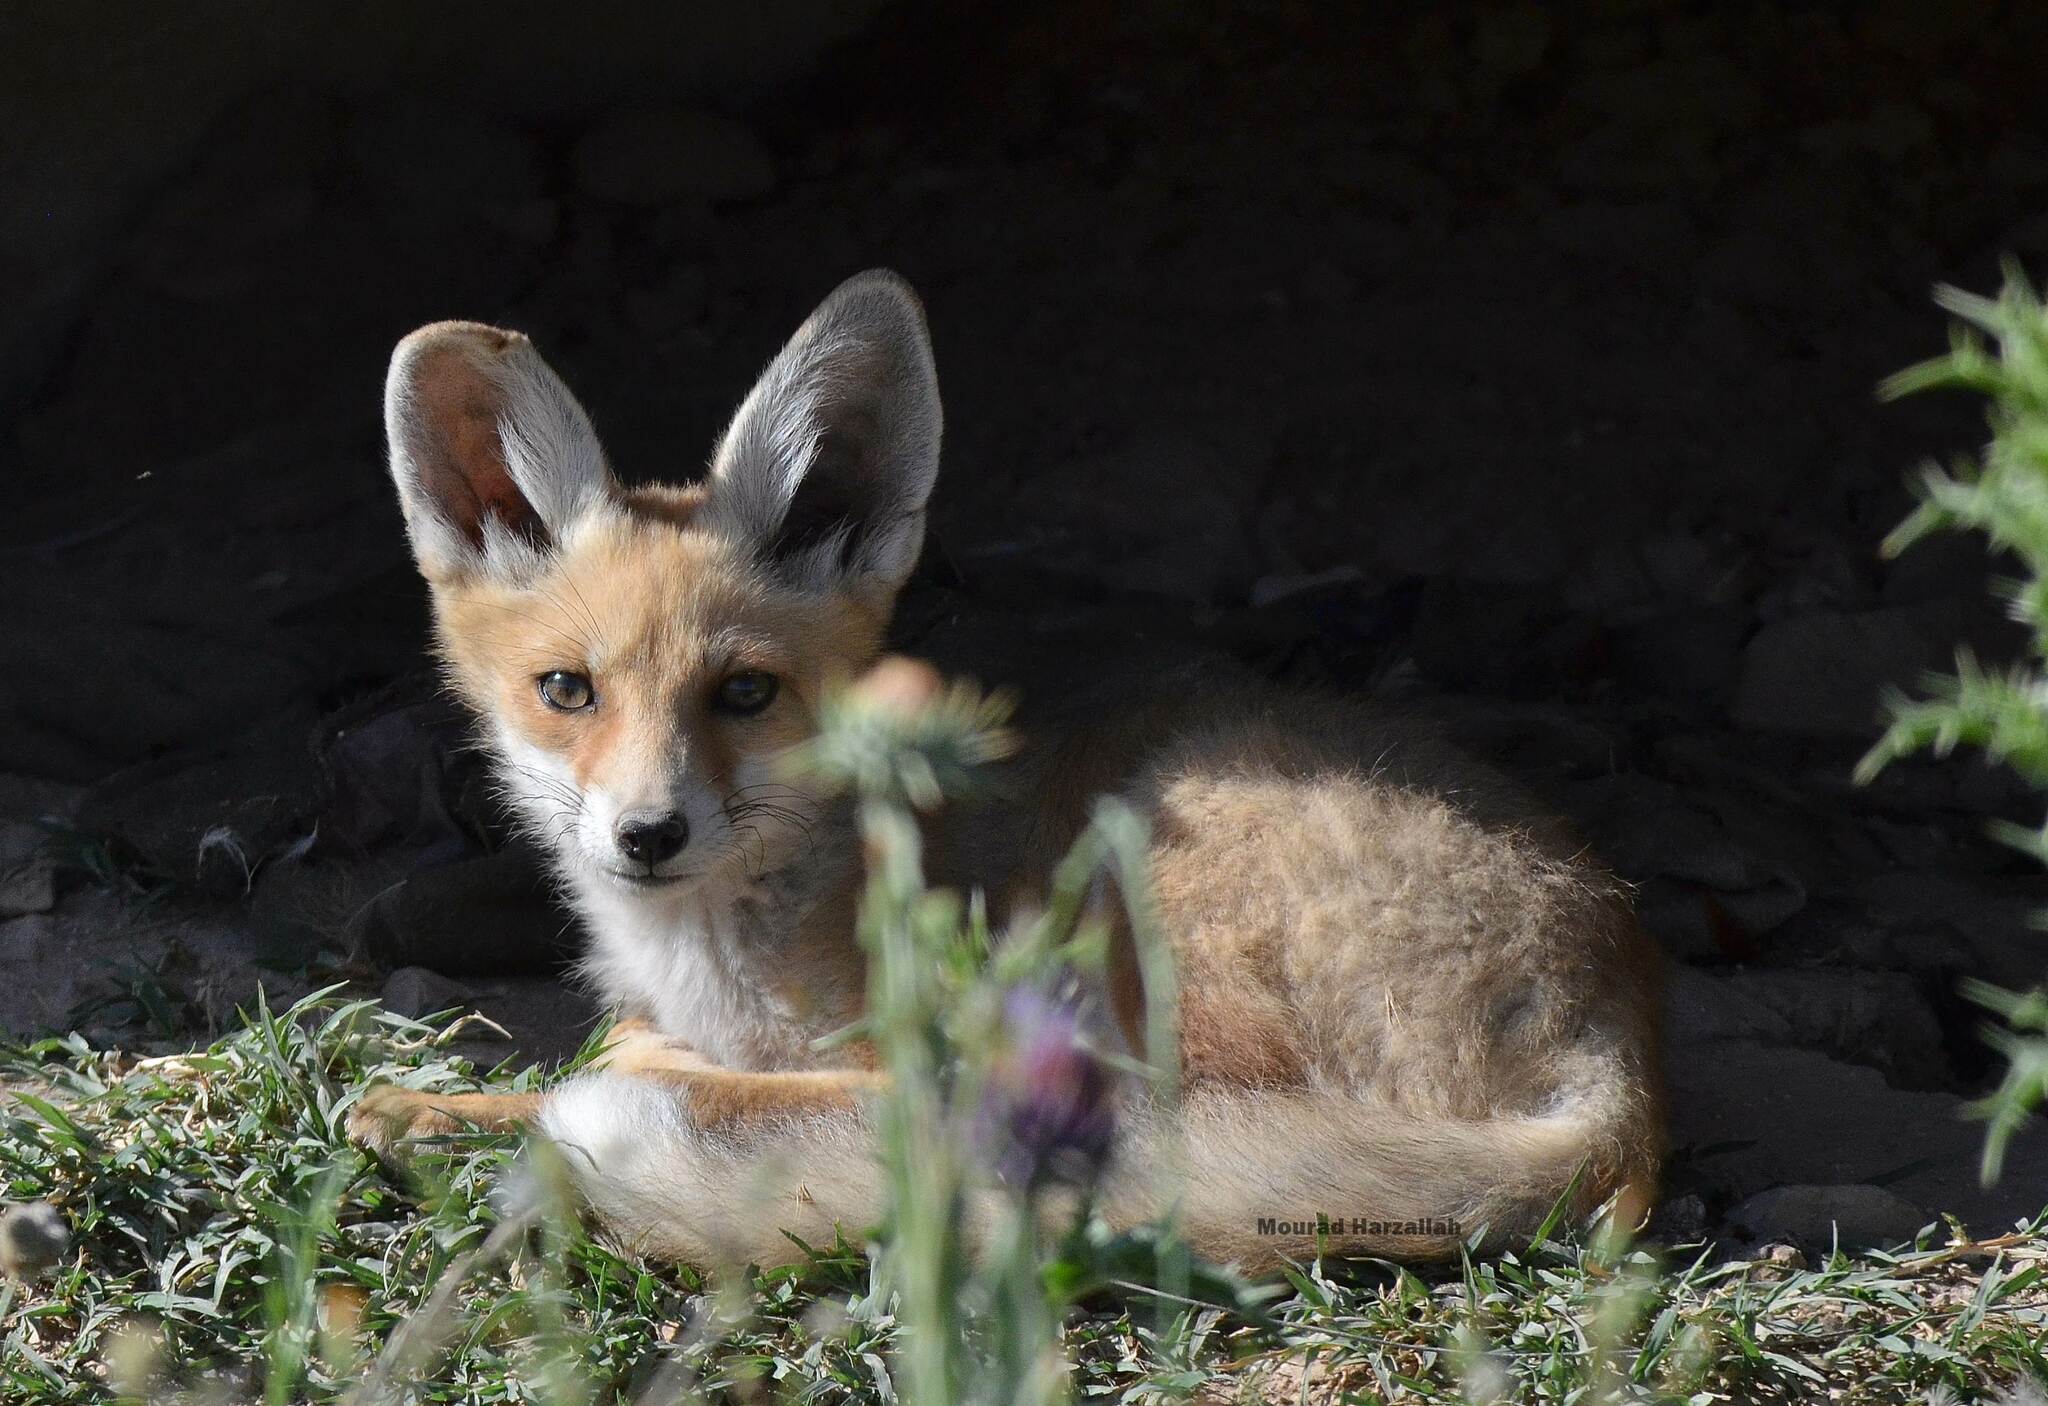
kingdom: Animalia
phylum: Chordata
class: Mammalia
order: Carnivora
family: Canidae
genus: Vulpes
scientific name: Vulpes vulpes
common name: Red fox
